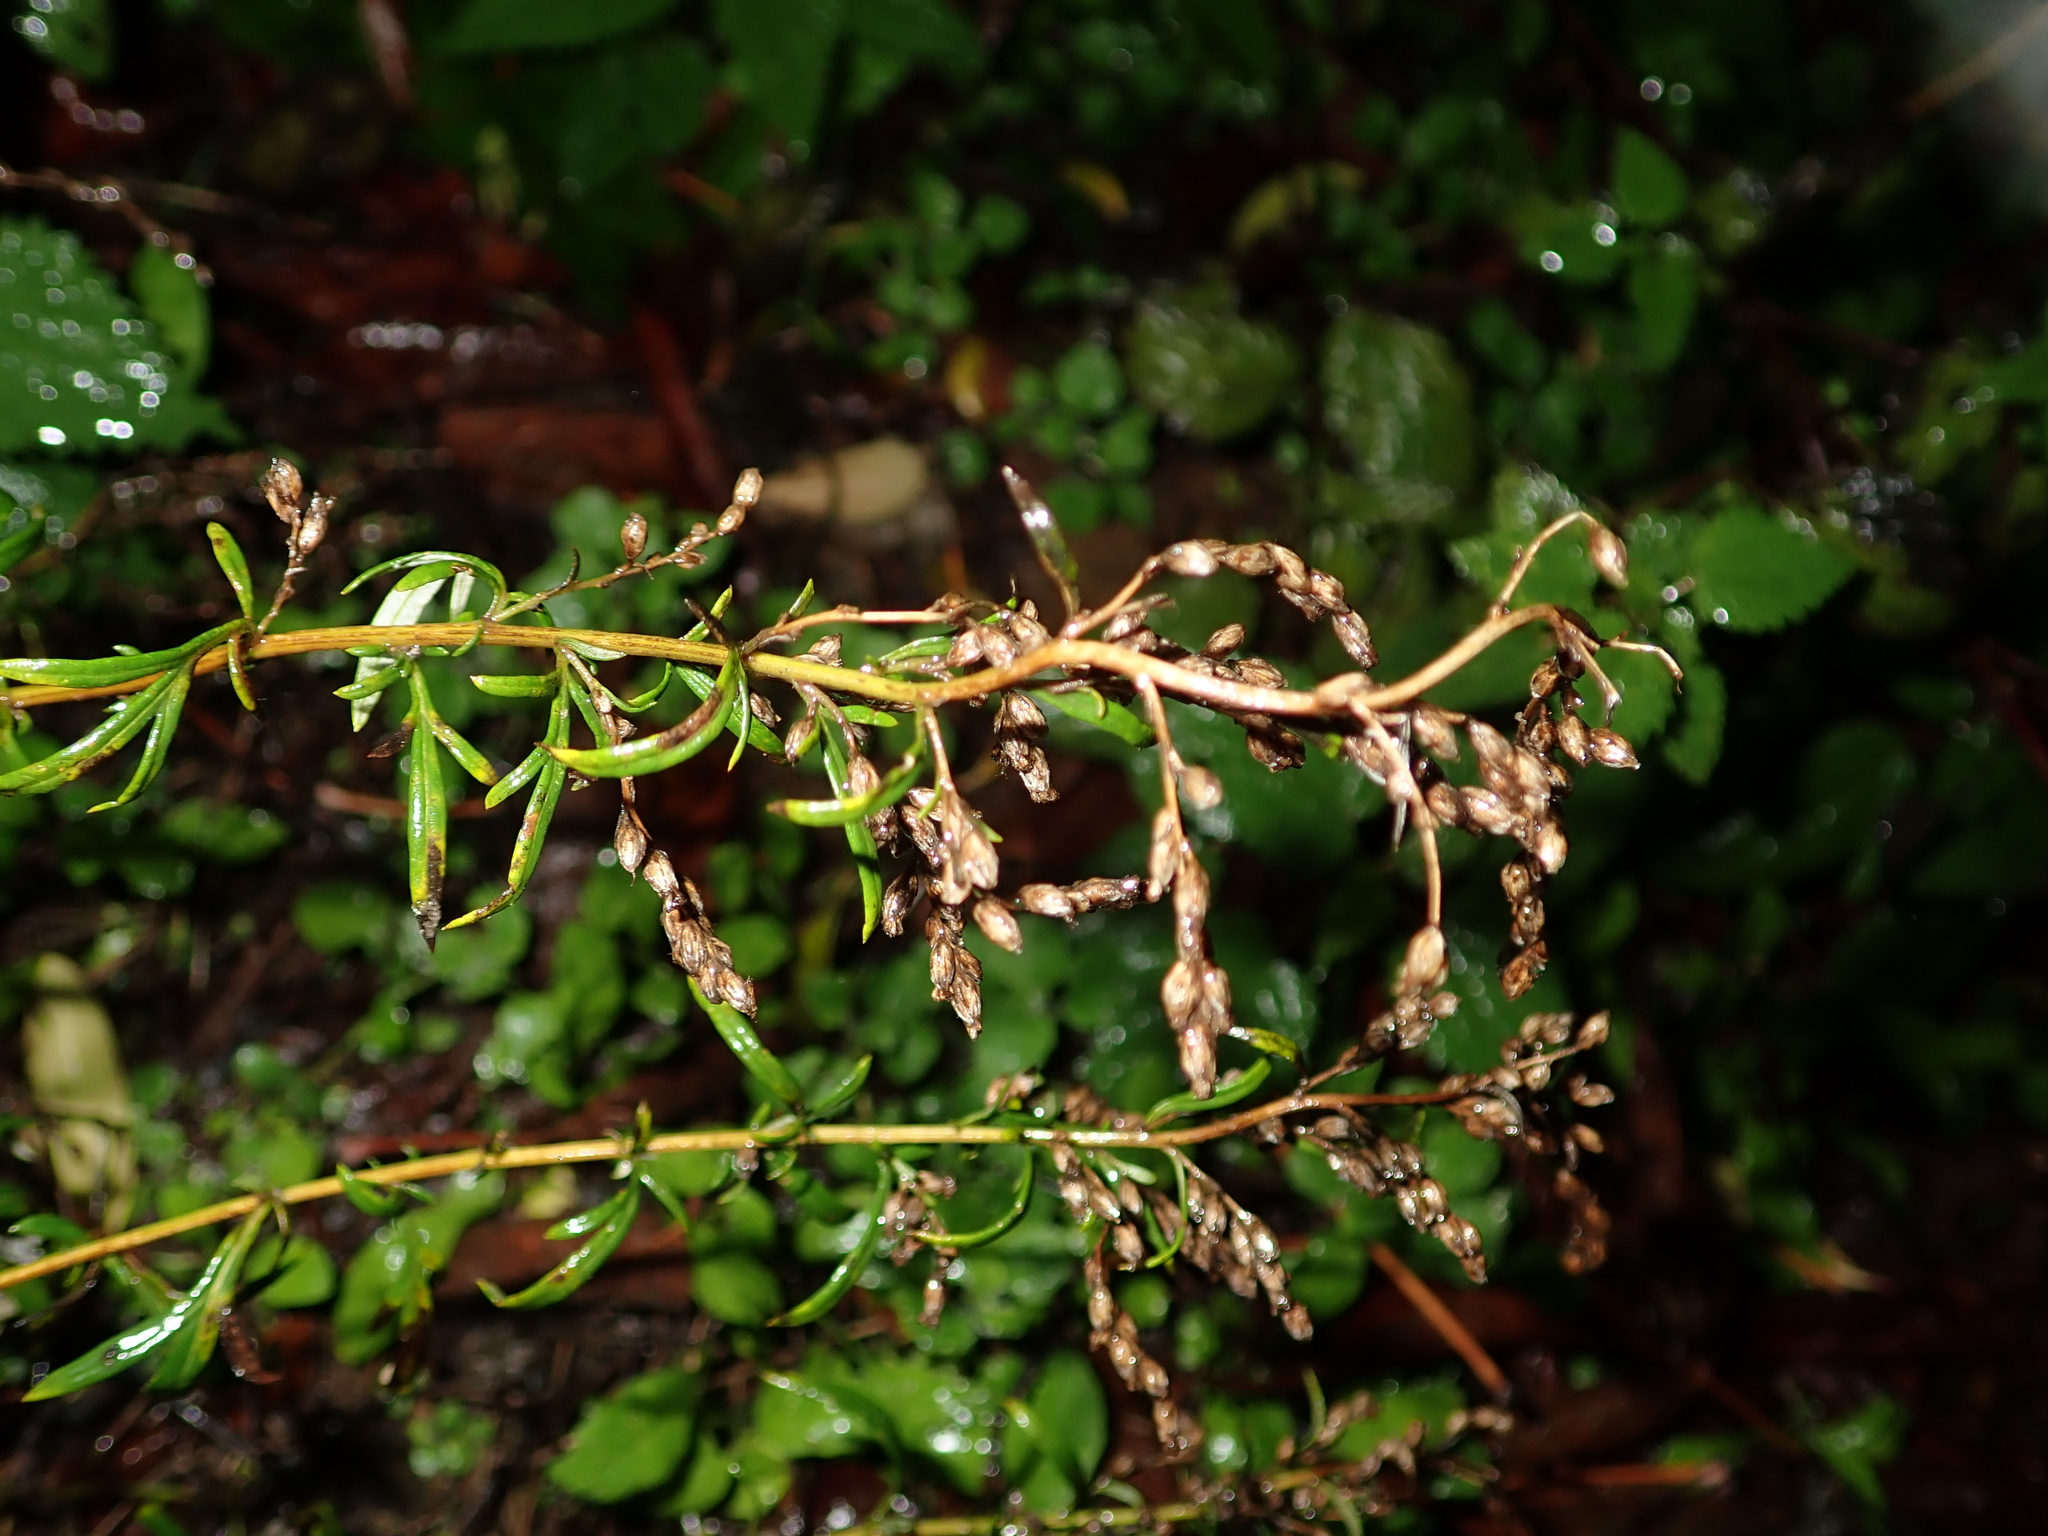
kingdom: Plantae
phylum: Tracheophyta
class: Magnoliopsida
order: Asterales
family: Asteraceae
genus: Artemisia
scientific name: Artemisia vulgaris
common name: Mugwort
